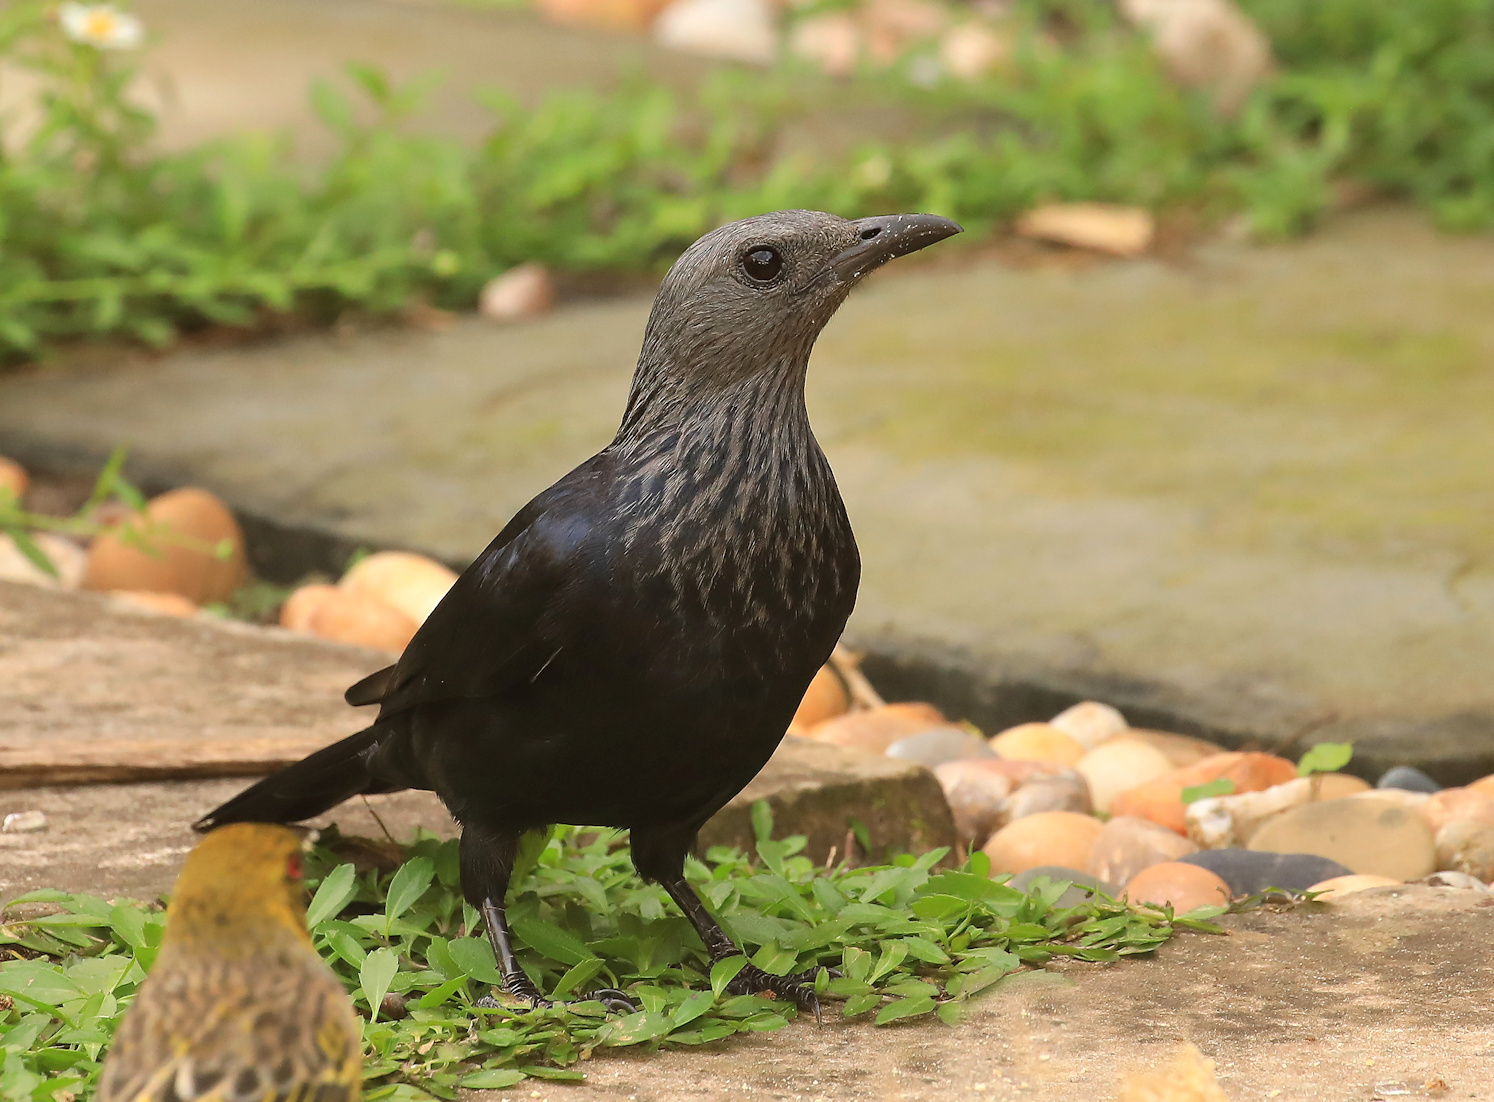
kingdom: Animalia
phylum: Chordata
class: Aves
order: Passeriformes
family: Sturnidae
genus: Onychognathus
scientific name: Onychognathus morio
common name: Red-winged starling
